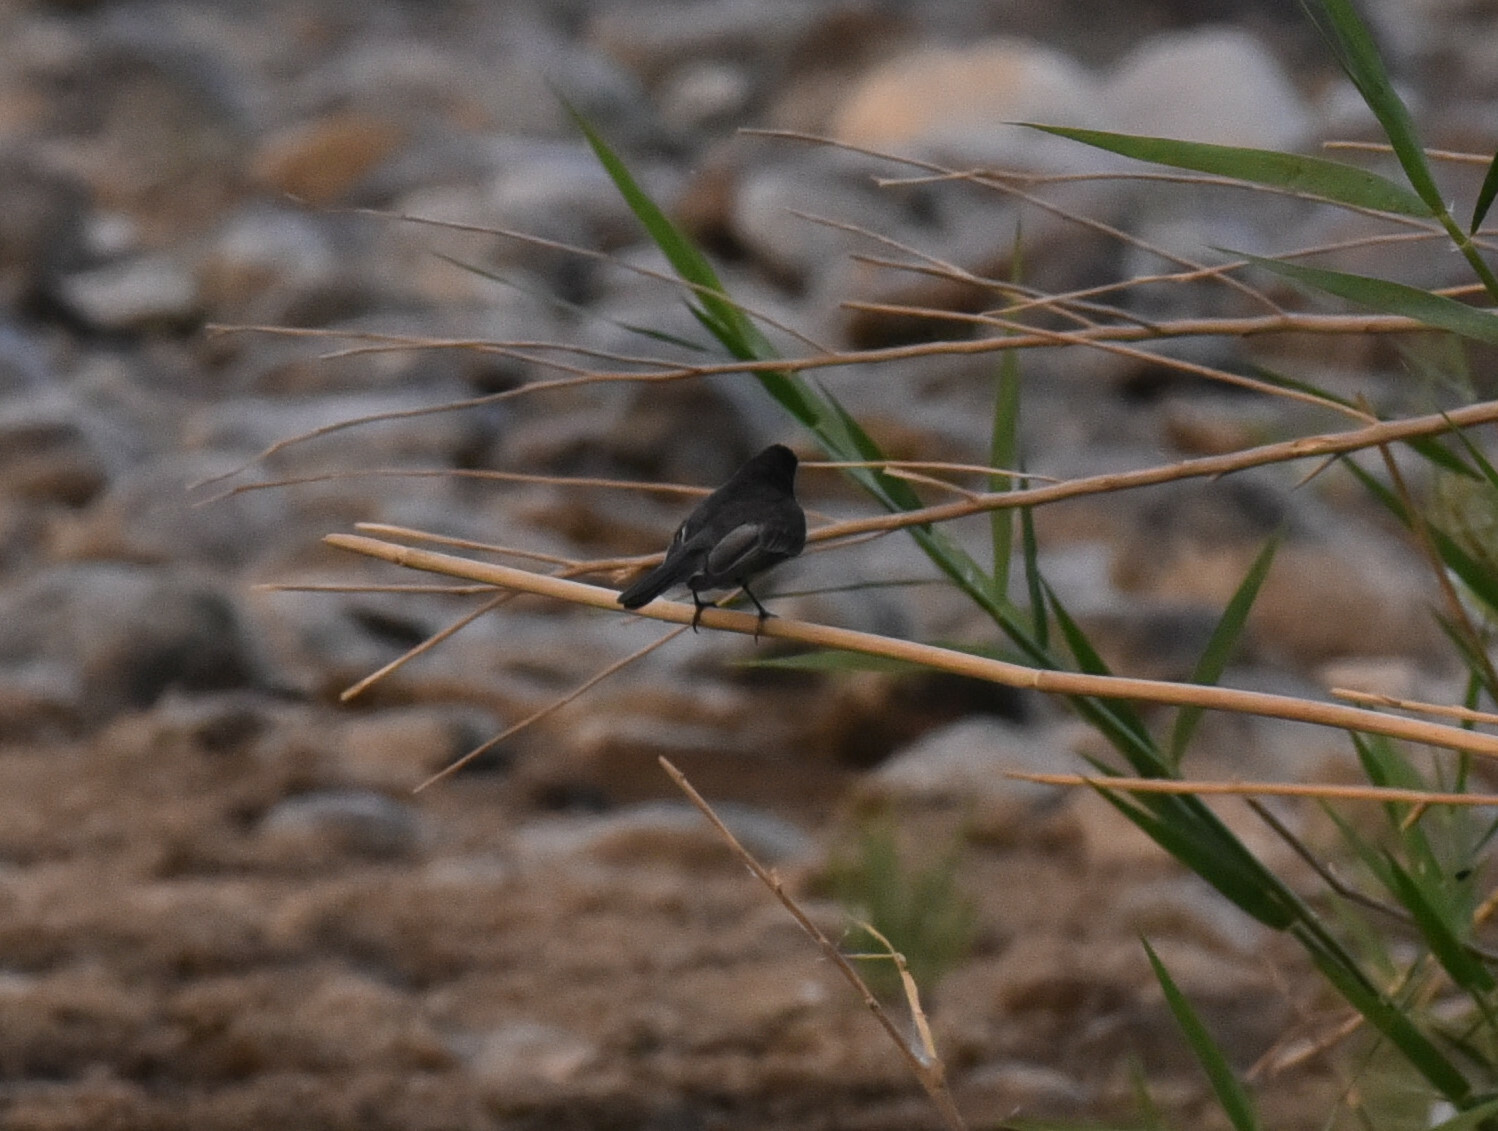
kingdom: Animalia
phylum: Chordata
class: Aves
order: Passeriformes
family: Tyrannidae
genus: Sayornis
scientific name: Sayornis nigricans
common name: Black phoebe
